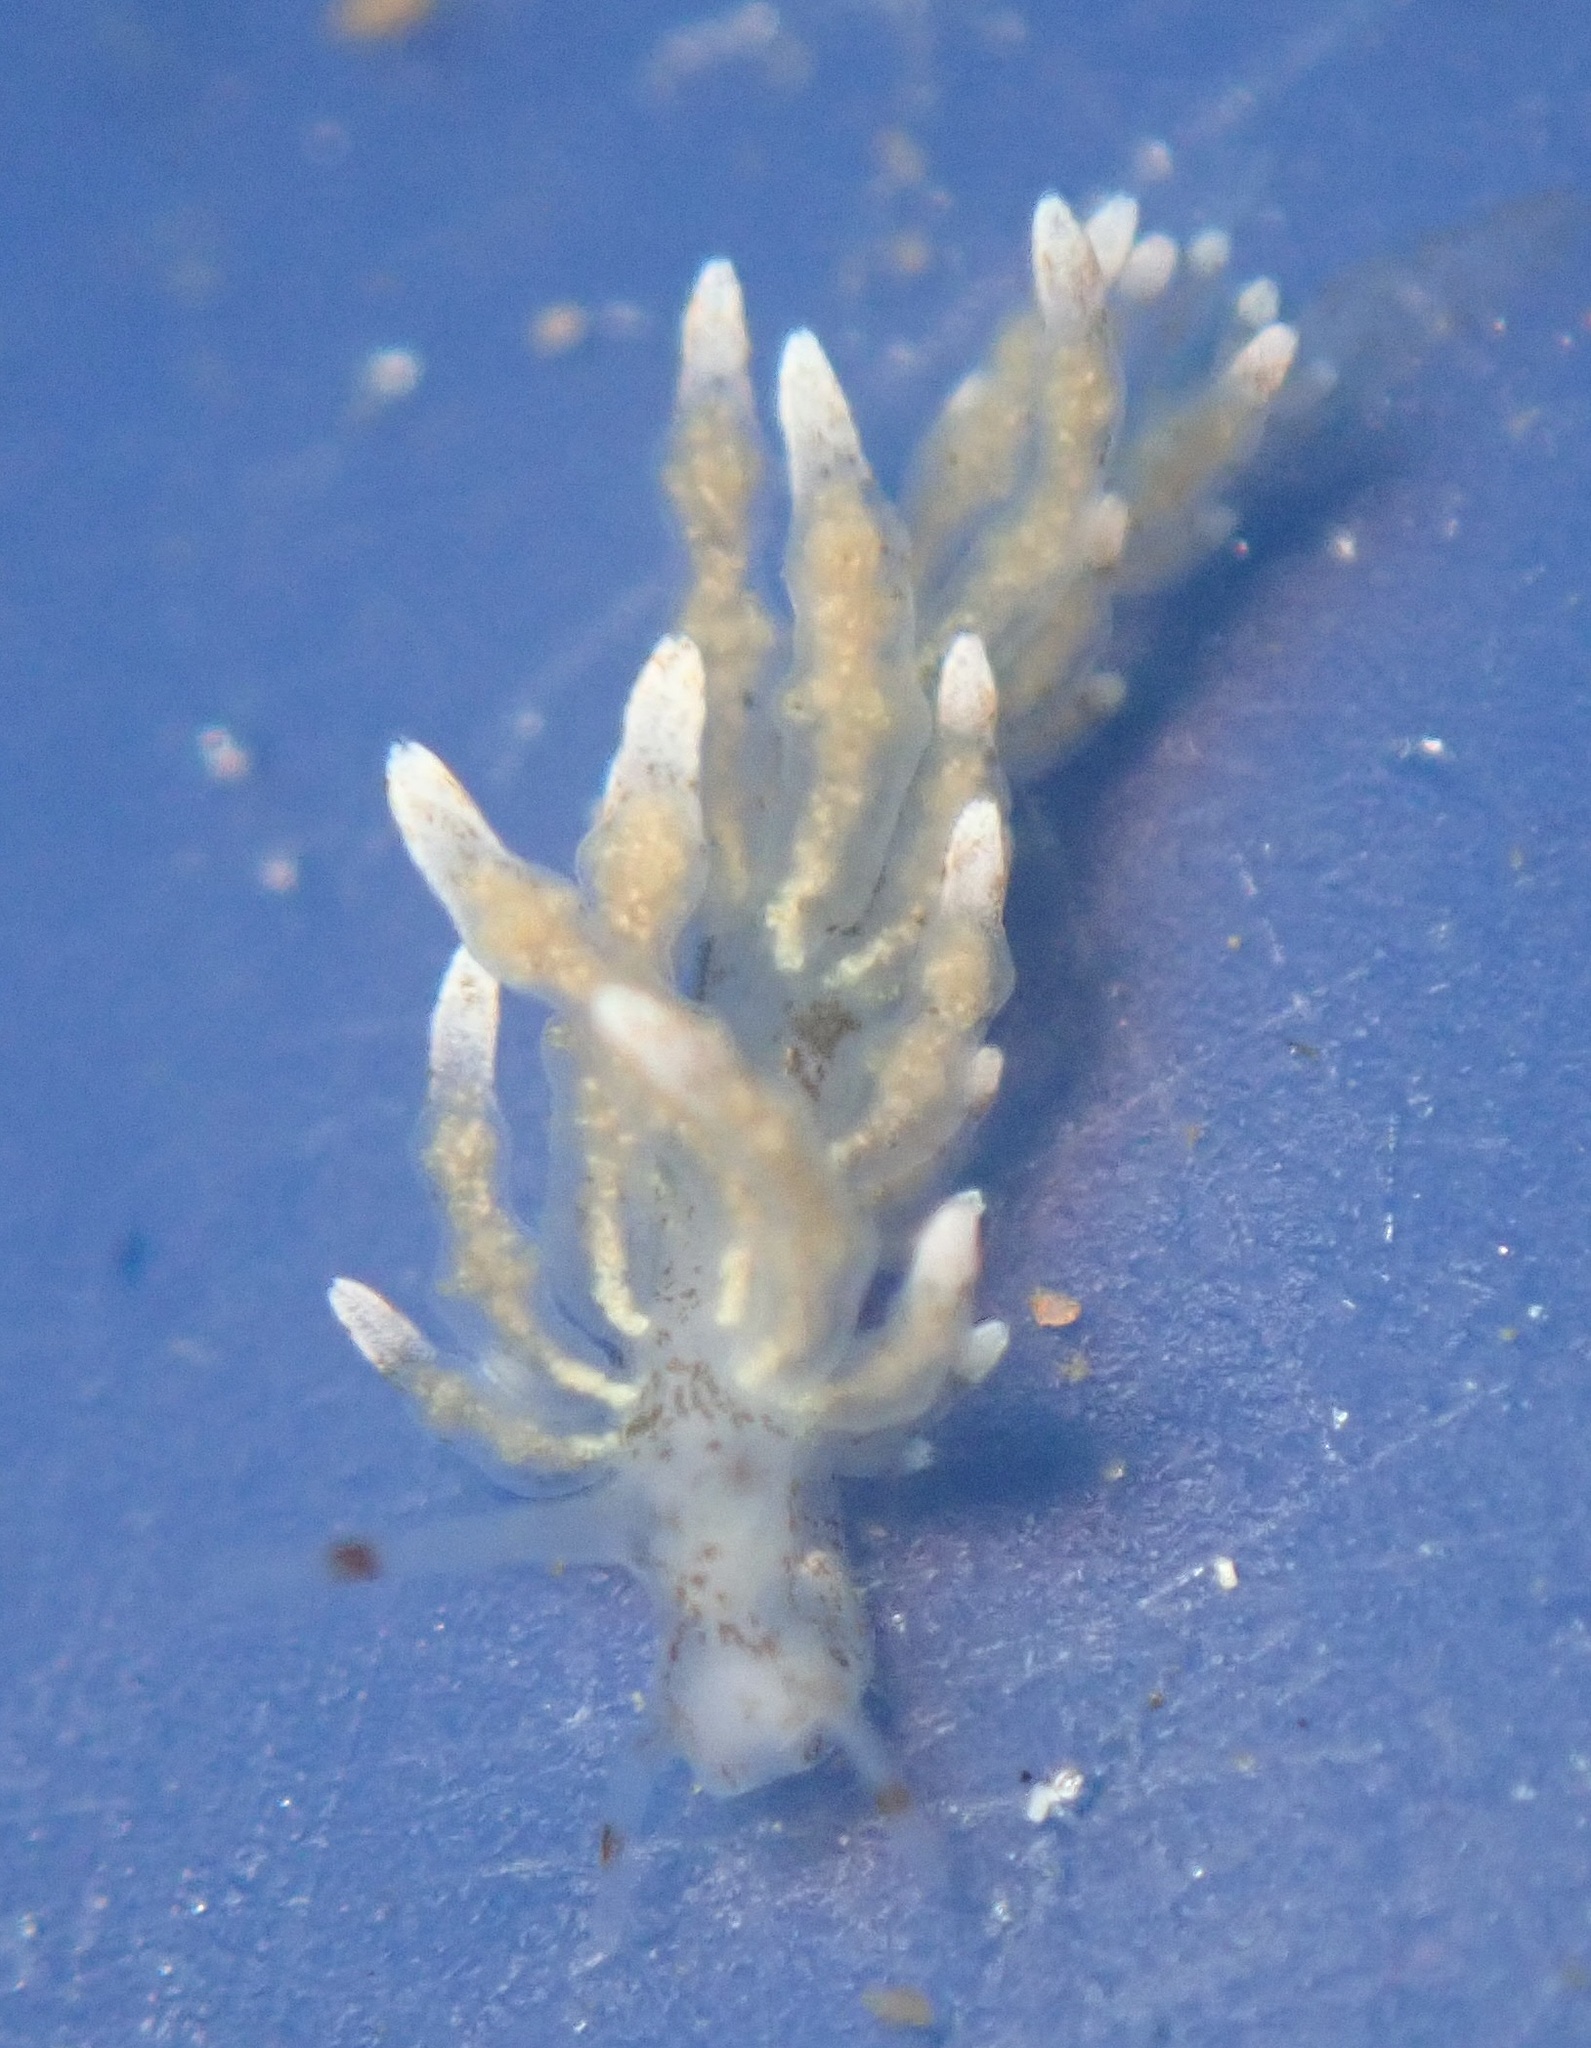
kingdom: Animalia
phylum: Mollusca
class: Gastropoda
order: Nudibranchia
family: Eubranchidae
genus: Eubranchus
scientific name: Eubranchus rustyus
